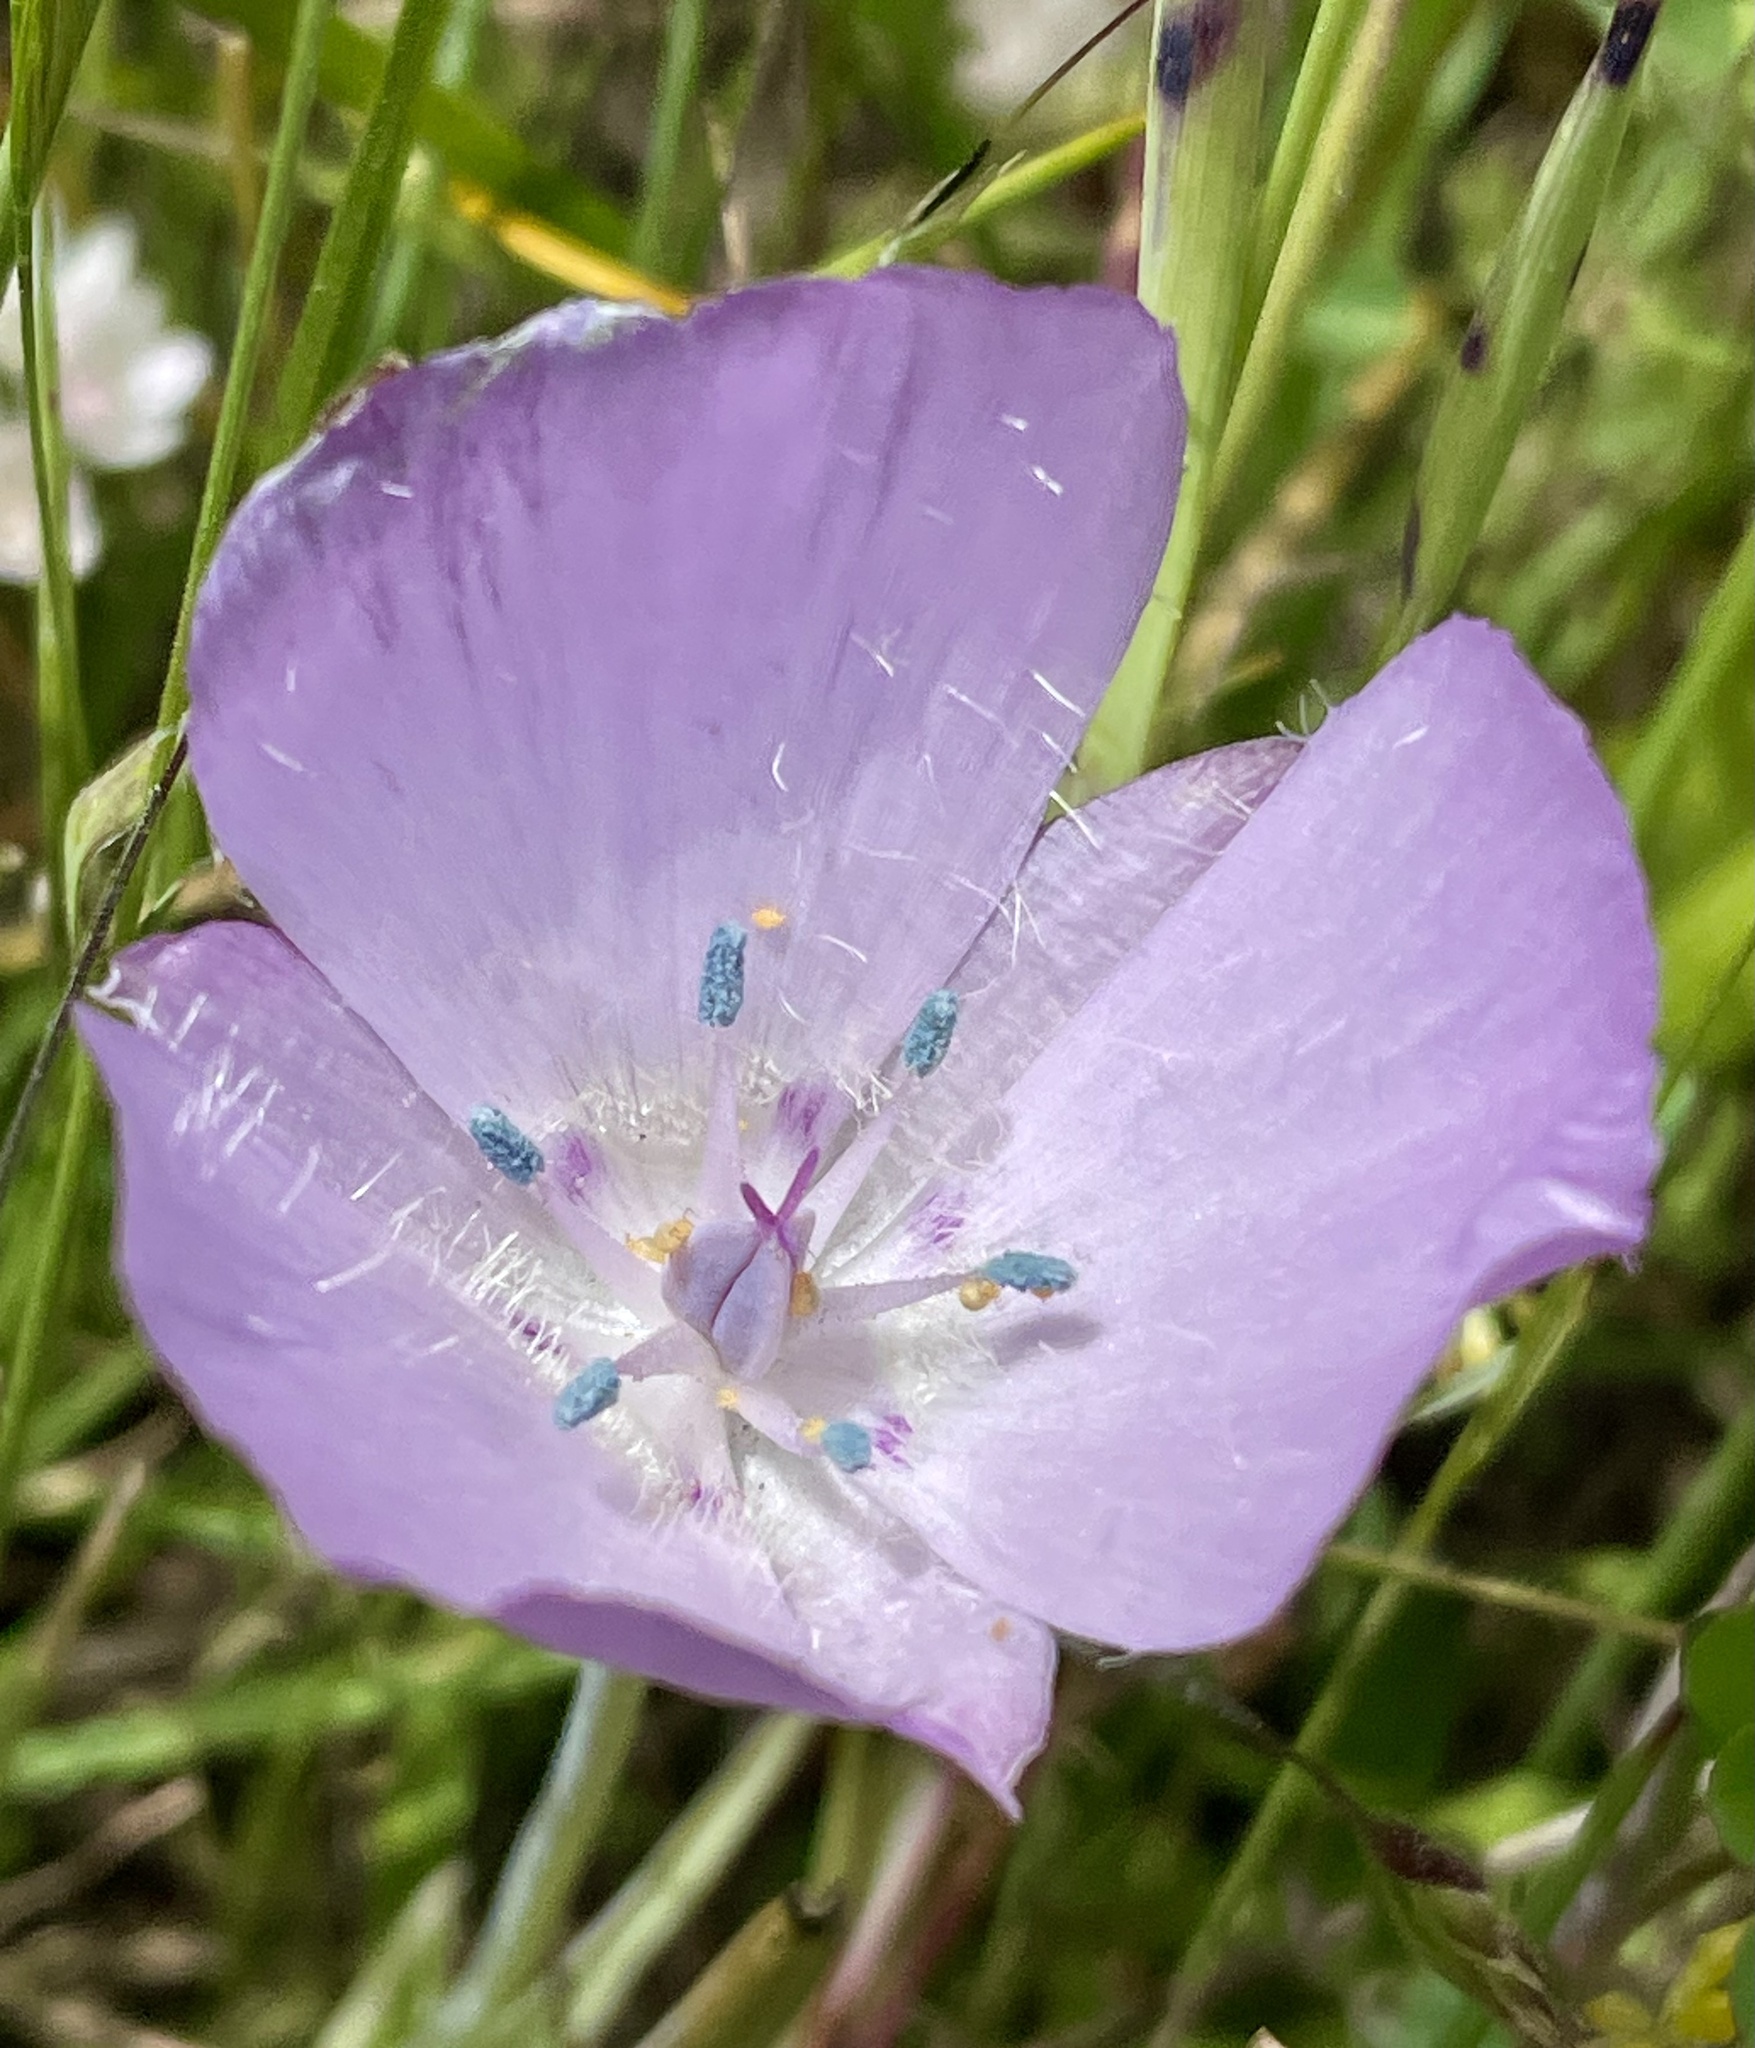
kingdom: Plantae
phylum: Tracheophyta
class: Liliopsida
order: Liliales
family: Liliaceae
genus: Calochortus
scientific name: Calochortus uniflorus
